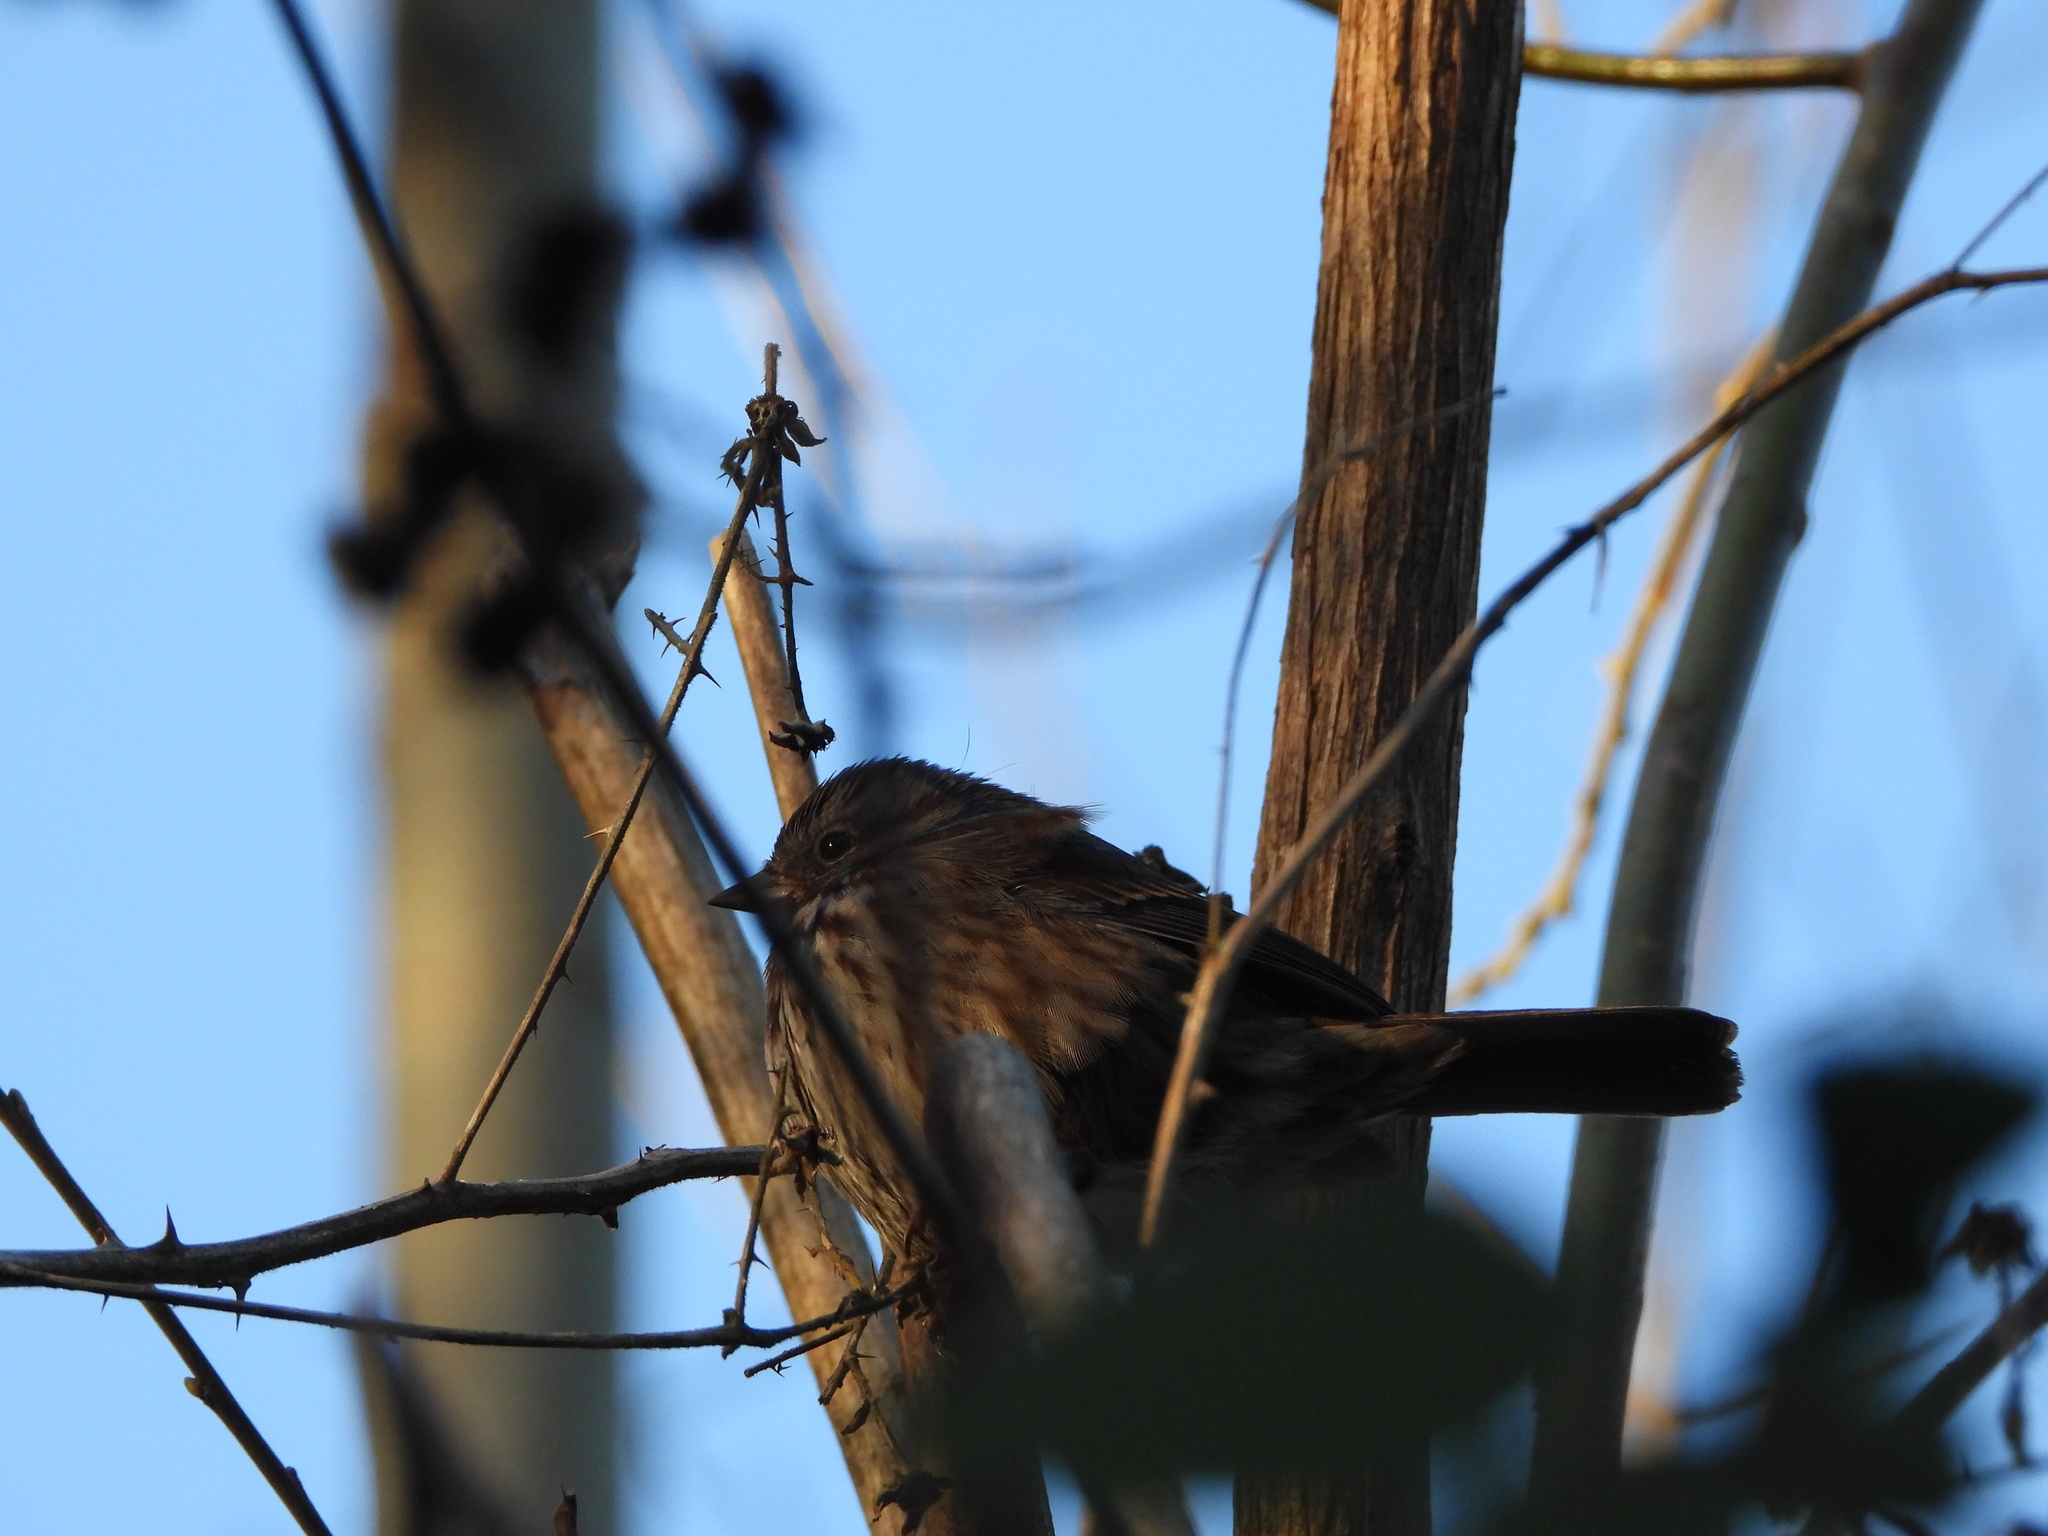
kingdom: Animalia
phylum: Chordata
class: Aves
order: Passeriformes
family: Passerellidae
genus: Melospiza
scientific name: Melospiza melodia
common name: Song sparrow
